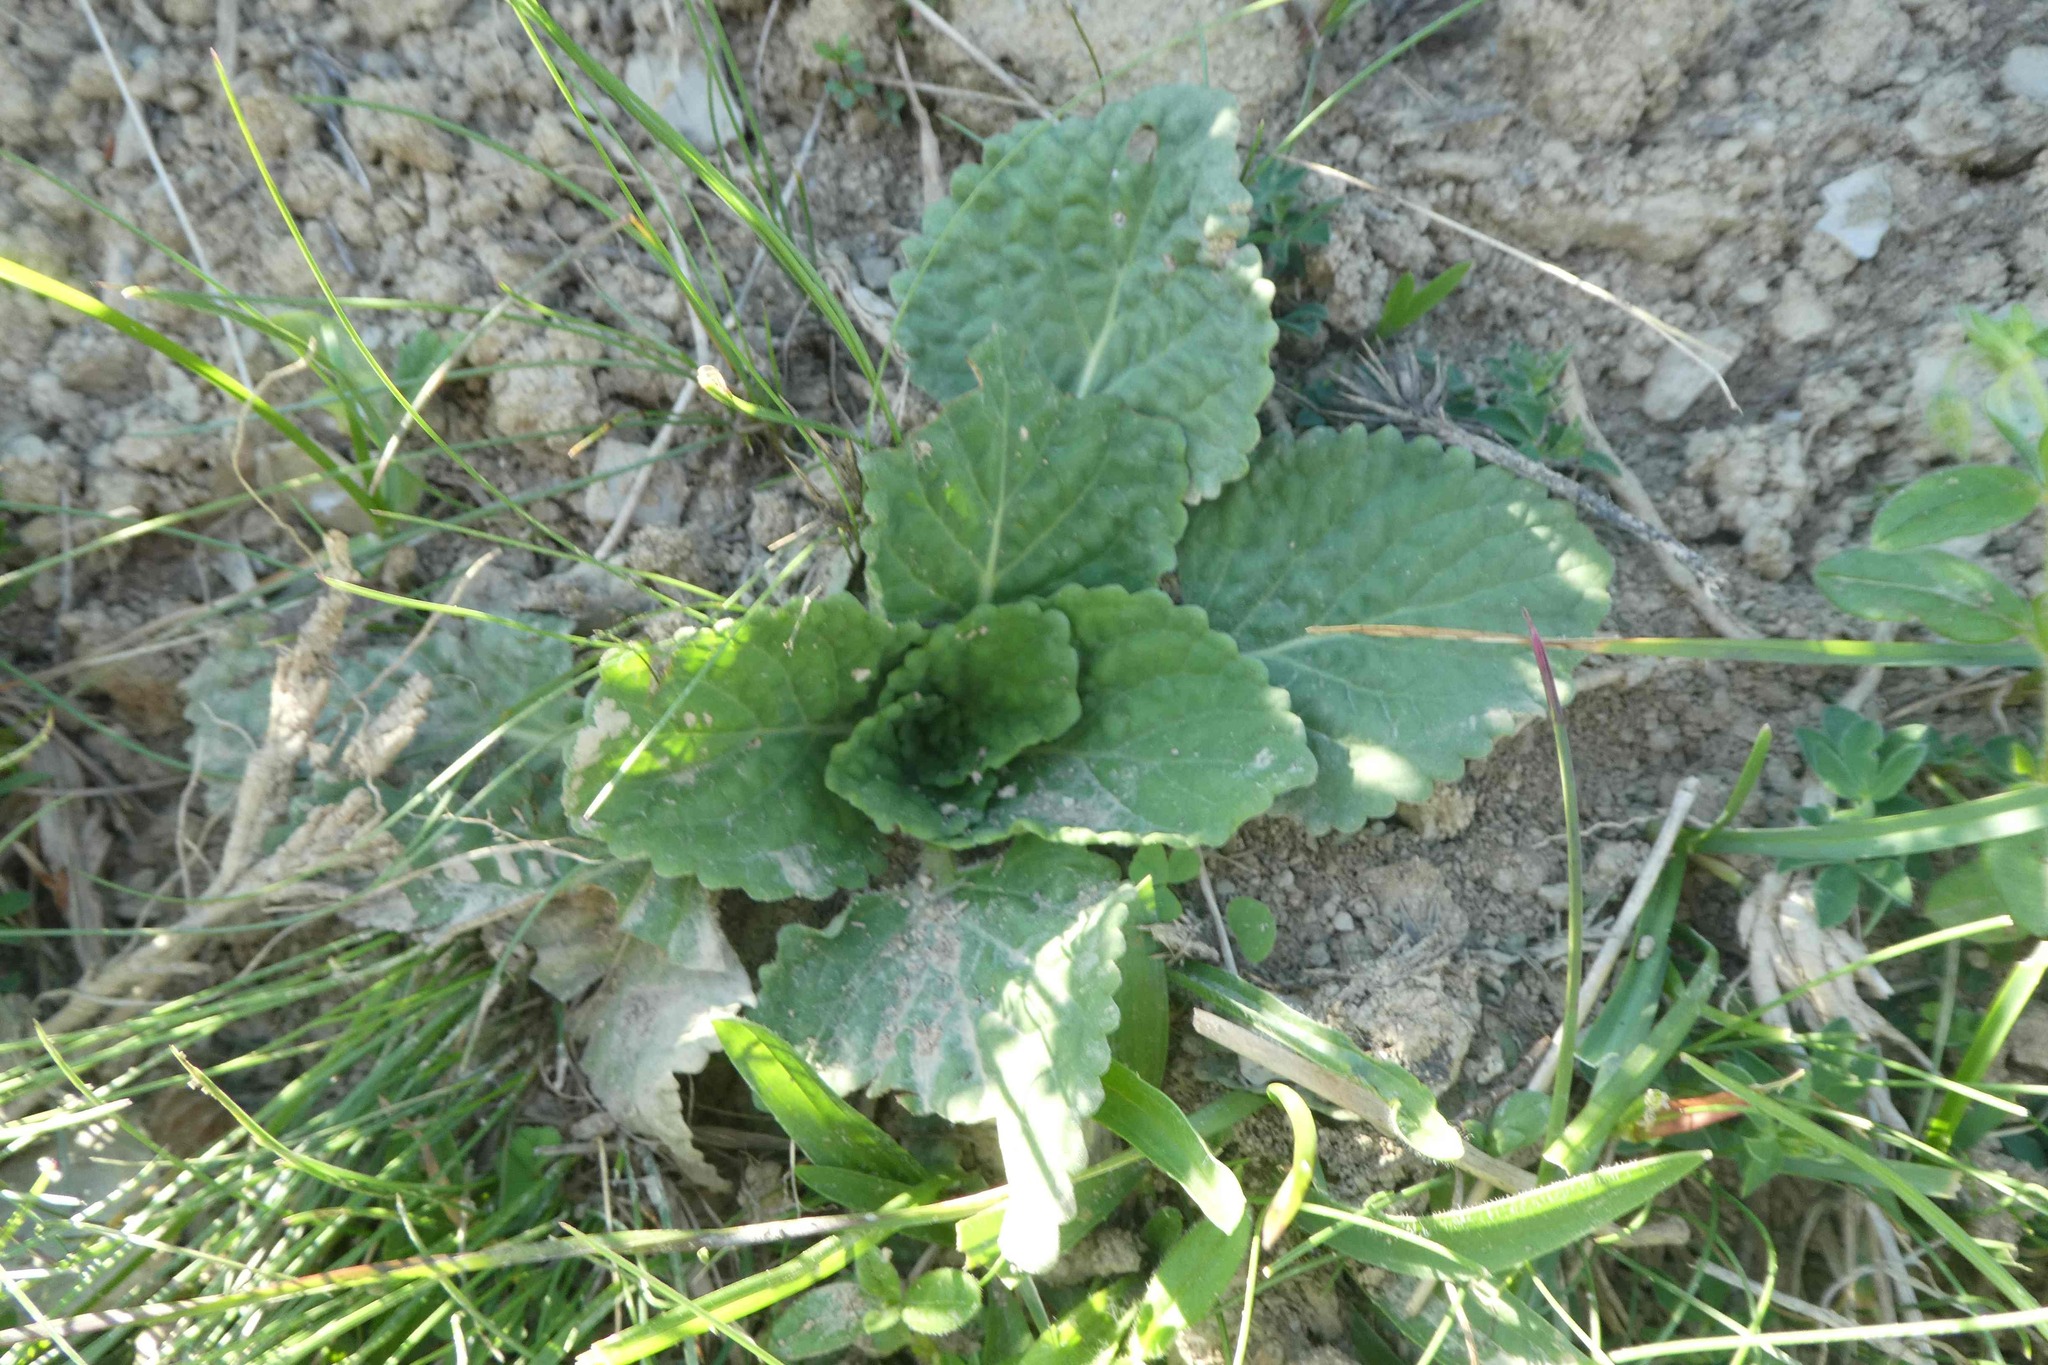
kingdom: Plantae
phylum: Tracheophyta
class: Magnoliopsida
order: Lamiales
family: Lamiaceae
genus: Horminum
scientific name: Horminum pyrenaicum
